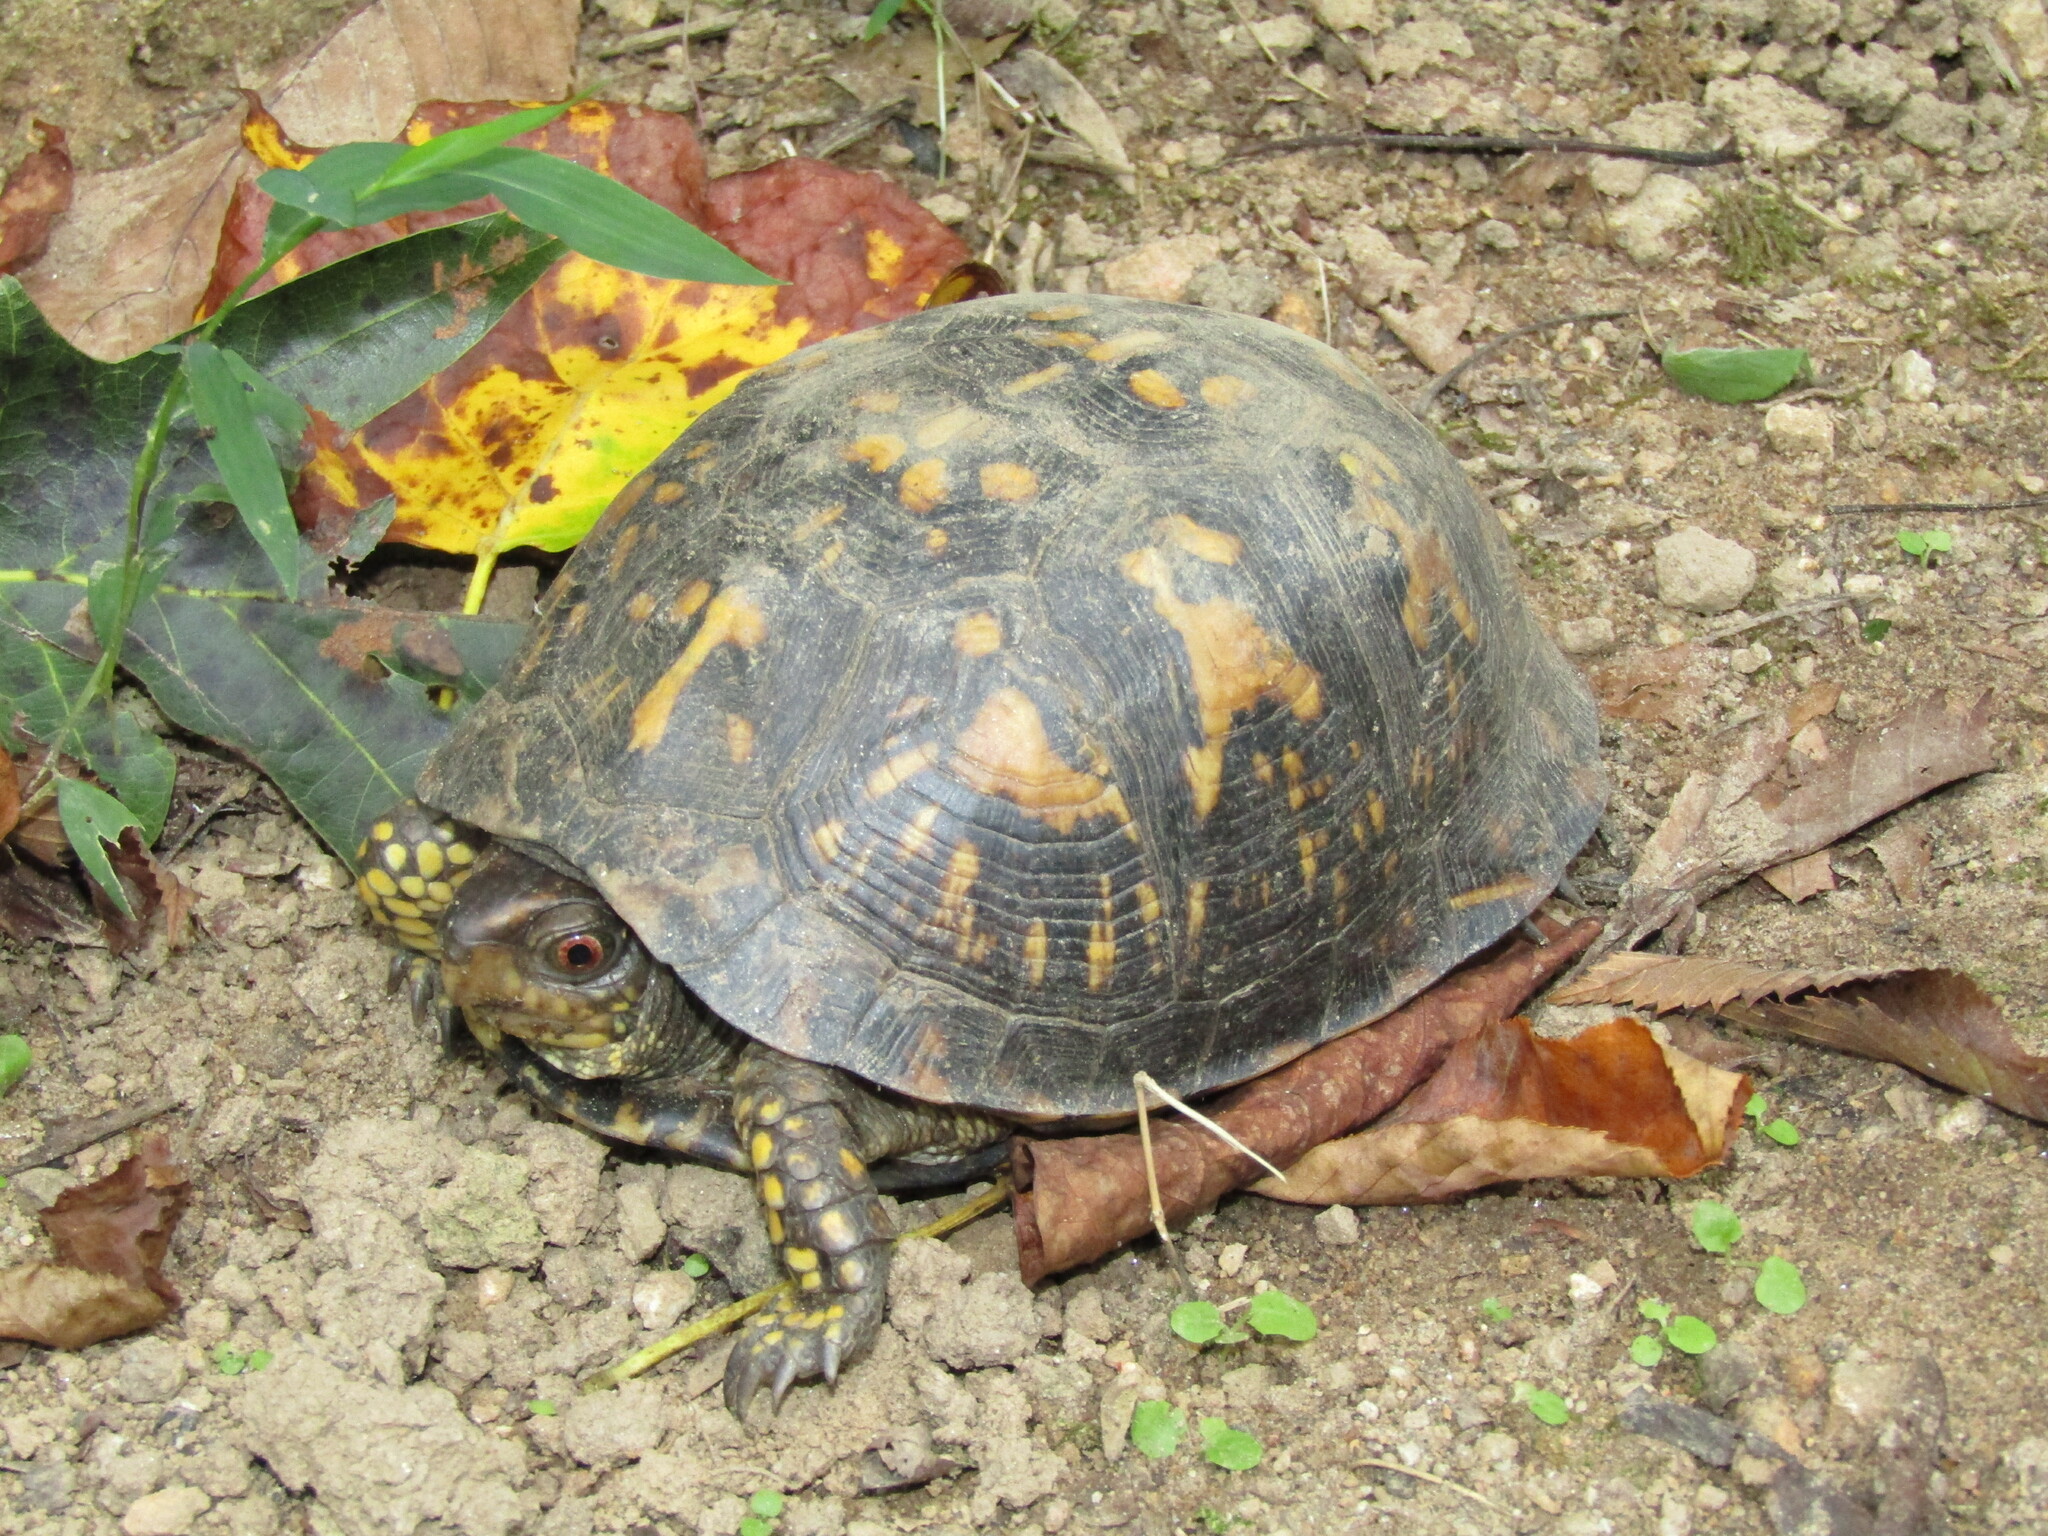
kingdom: Animalia
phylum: Chordata
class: Testudines
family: Emydidae
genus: Terrapene
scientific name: Terrapene carolina
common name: Common box turtle
